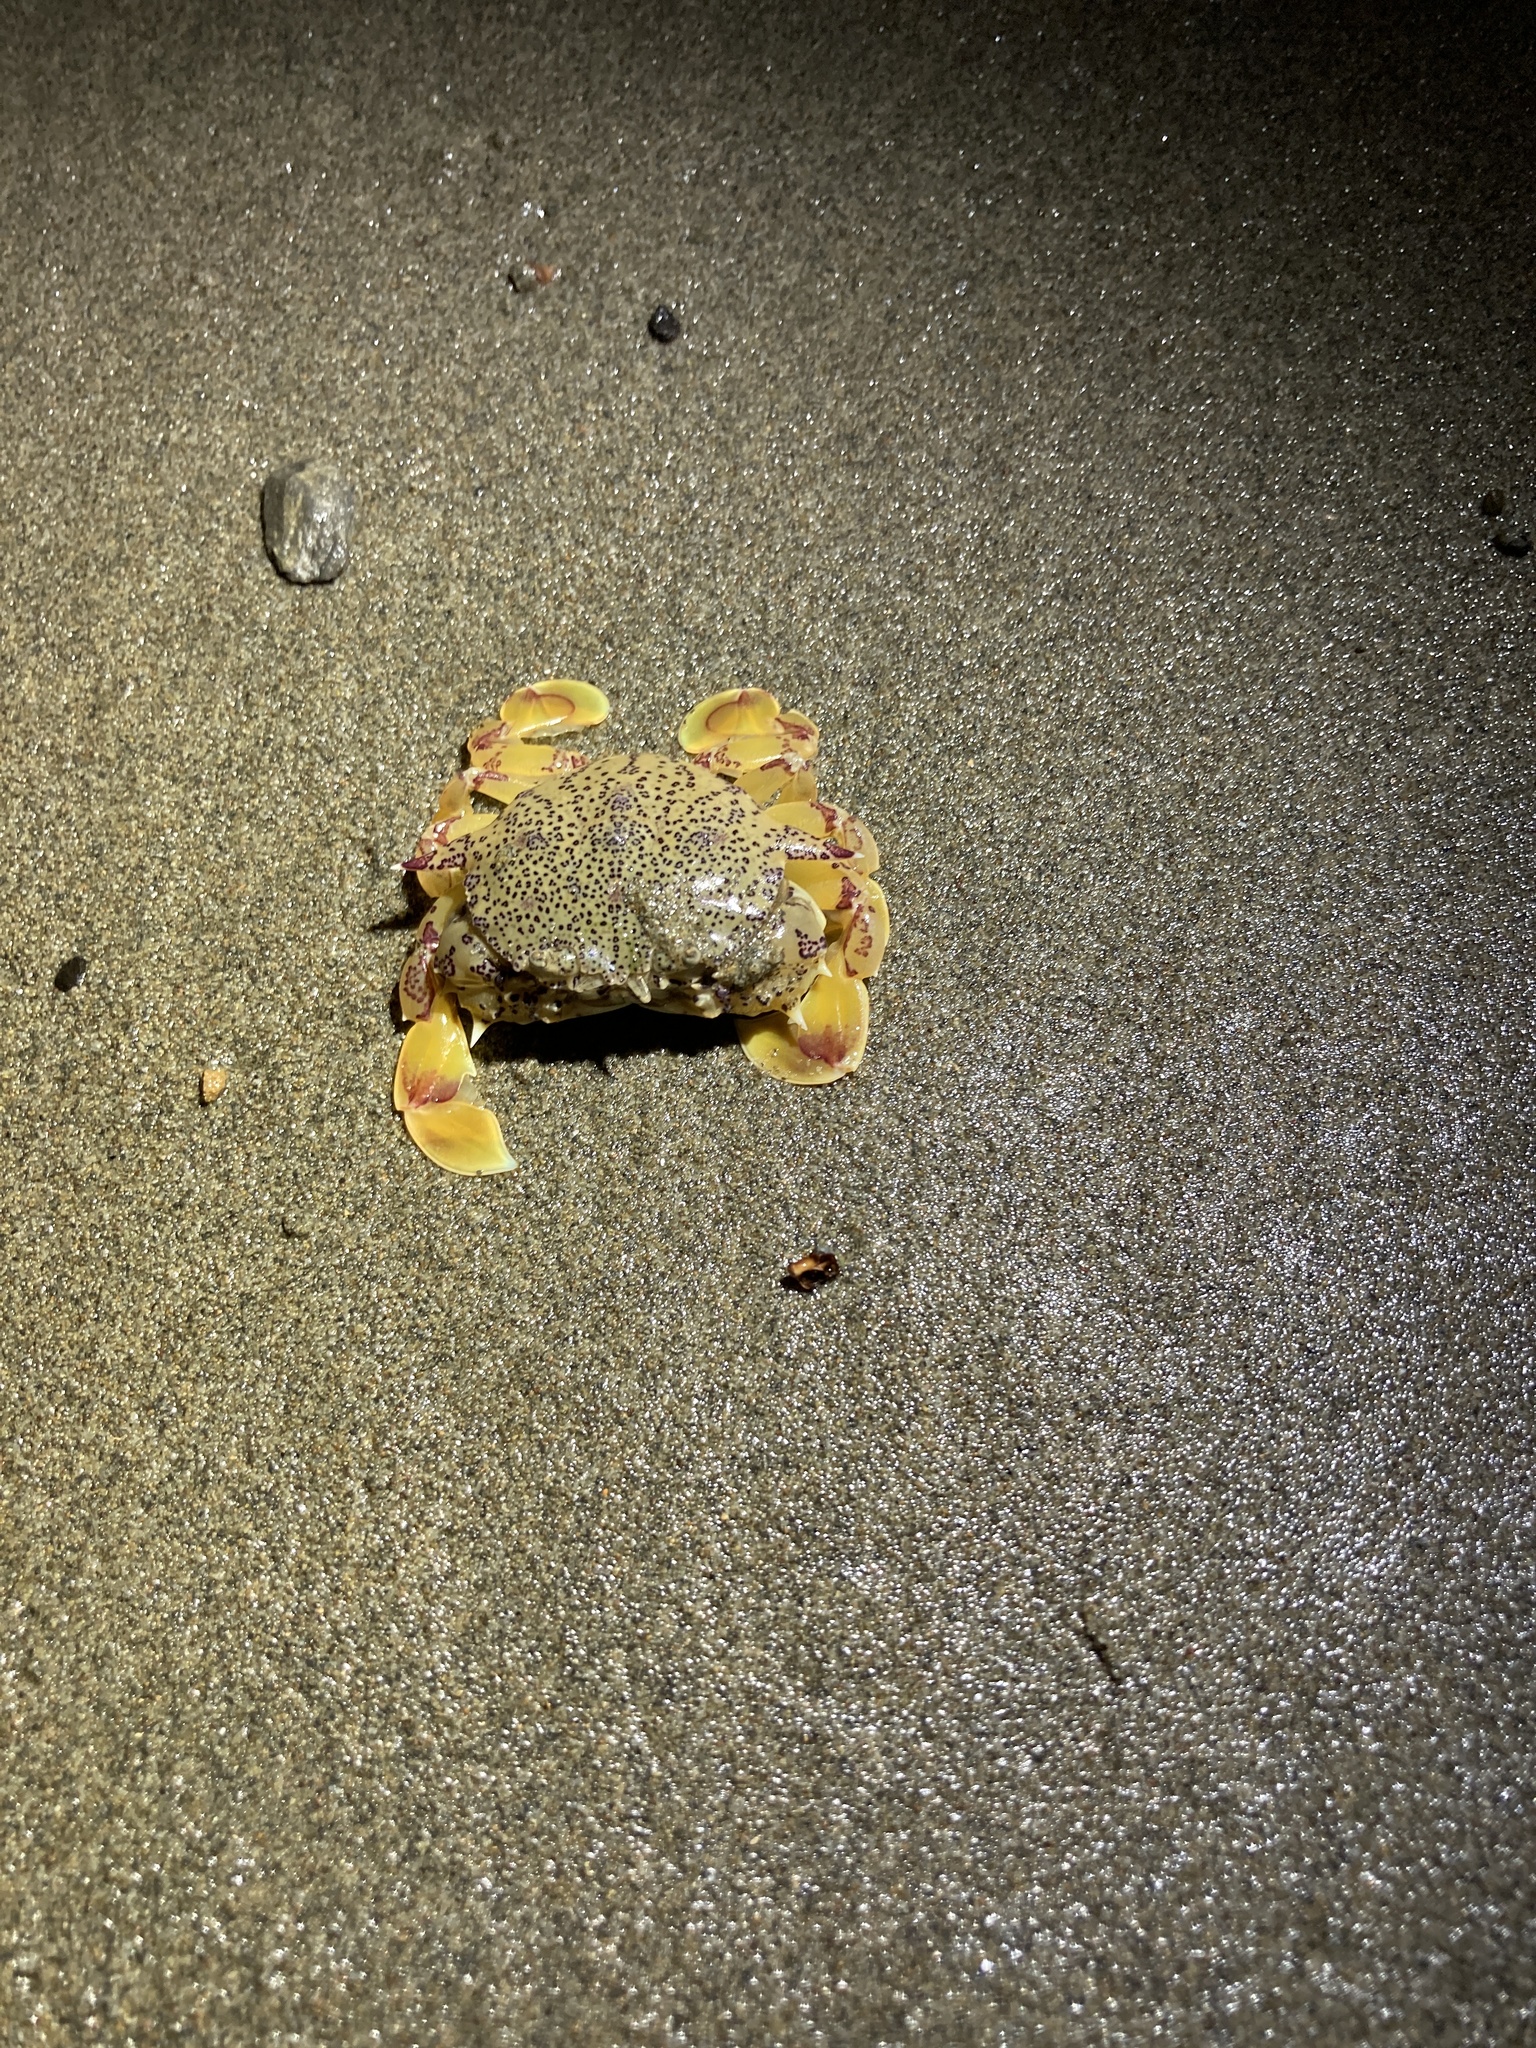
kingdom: Animalia
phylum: Arthropoda
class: Malacostraca
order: Decapoda
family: Matutidae
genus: Matuta
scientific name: Matuta victor
